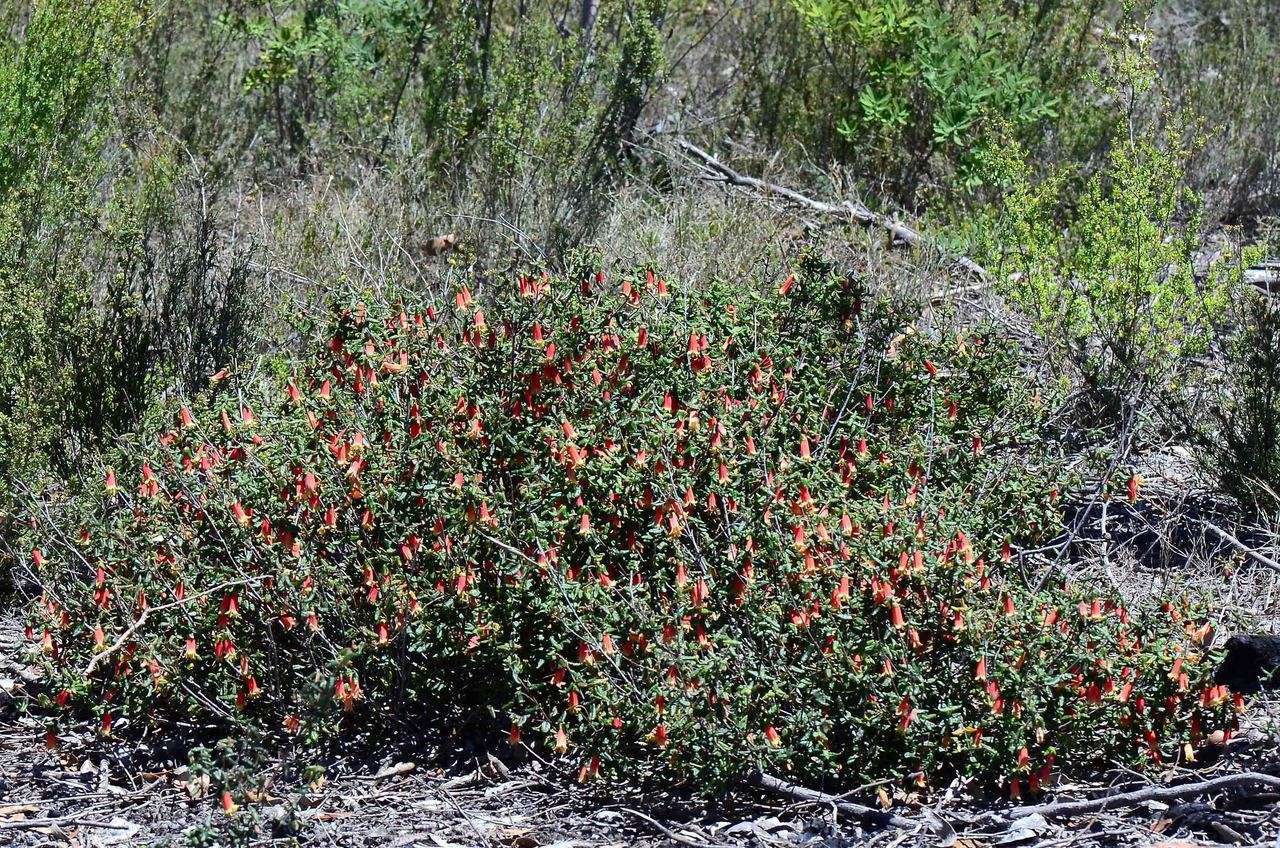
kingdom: Plantae
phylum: Tracheophyta
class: Magnoliopsida
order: Sapindales
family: Rutaceae
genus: Correa
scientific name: Correa reflexa
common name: Common correa
